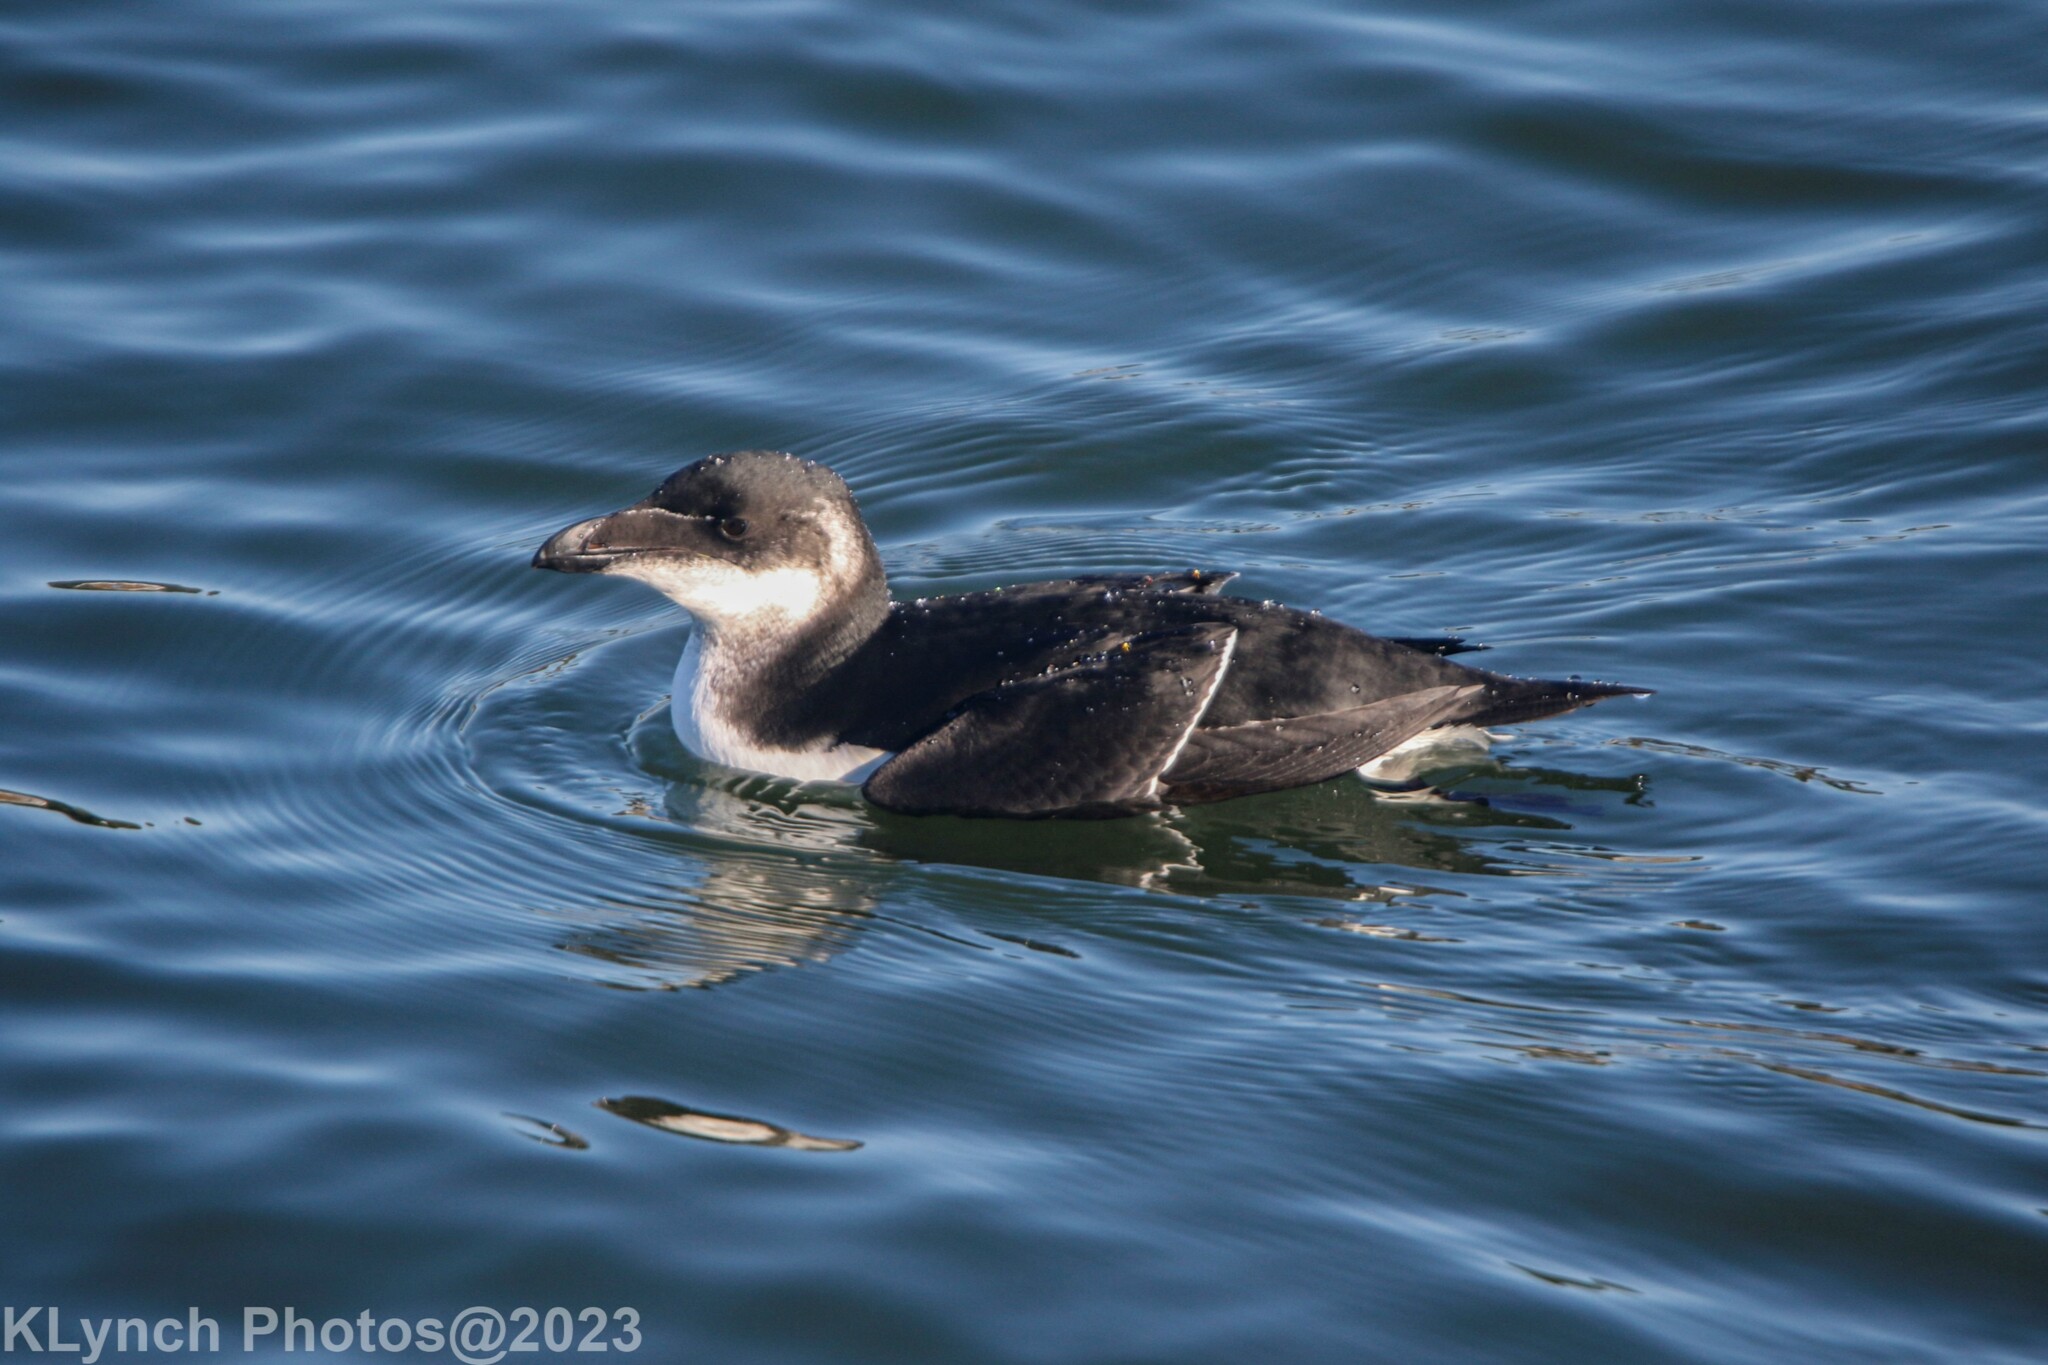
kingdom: Animalia
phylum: Chordata
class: Aves
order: Charadriiformes
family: Alcidae
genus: Alca
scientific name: Alca torda
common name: Razorbill
